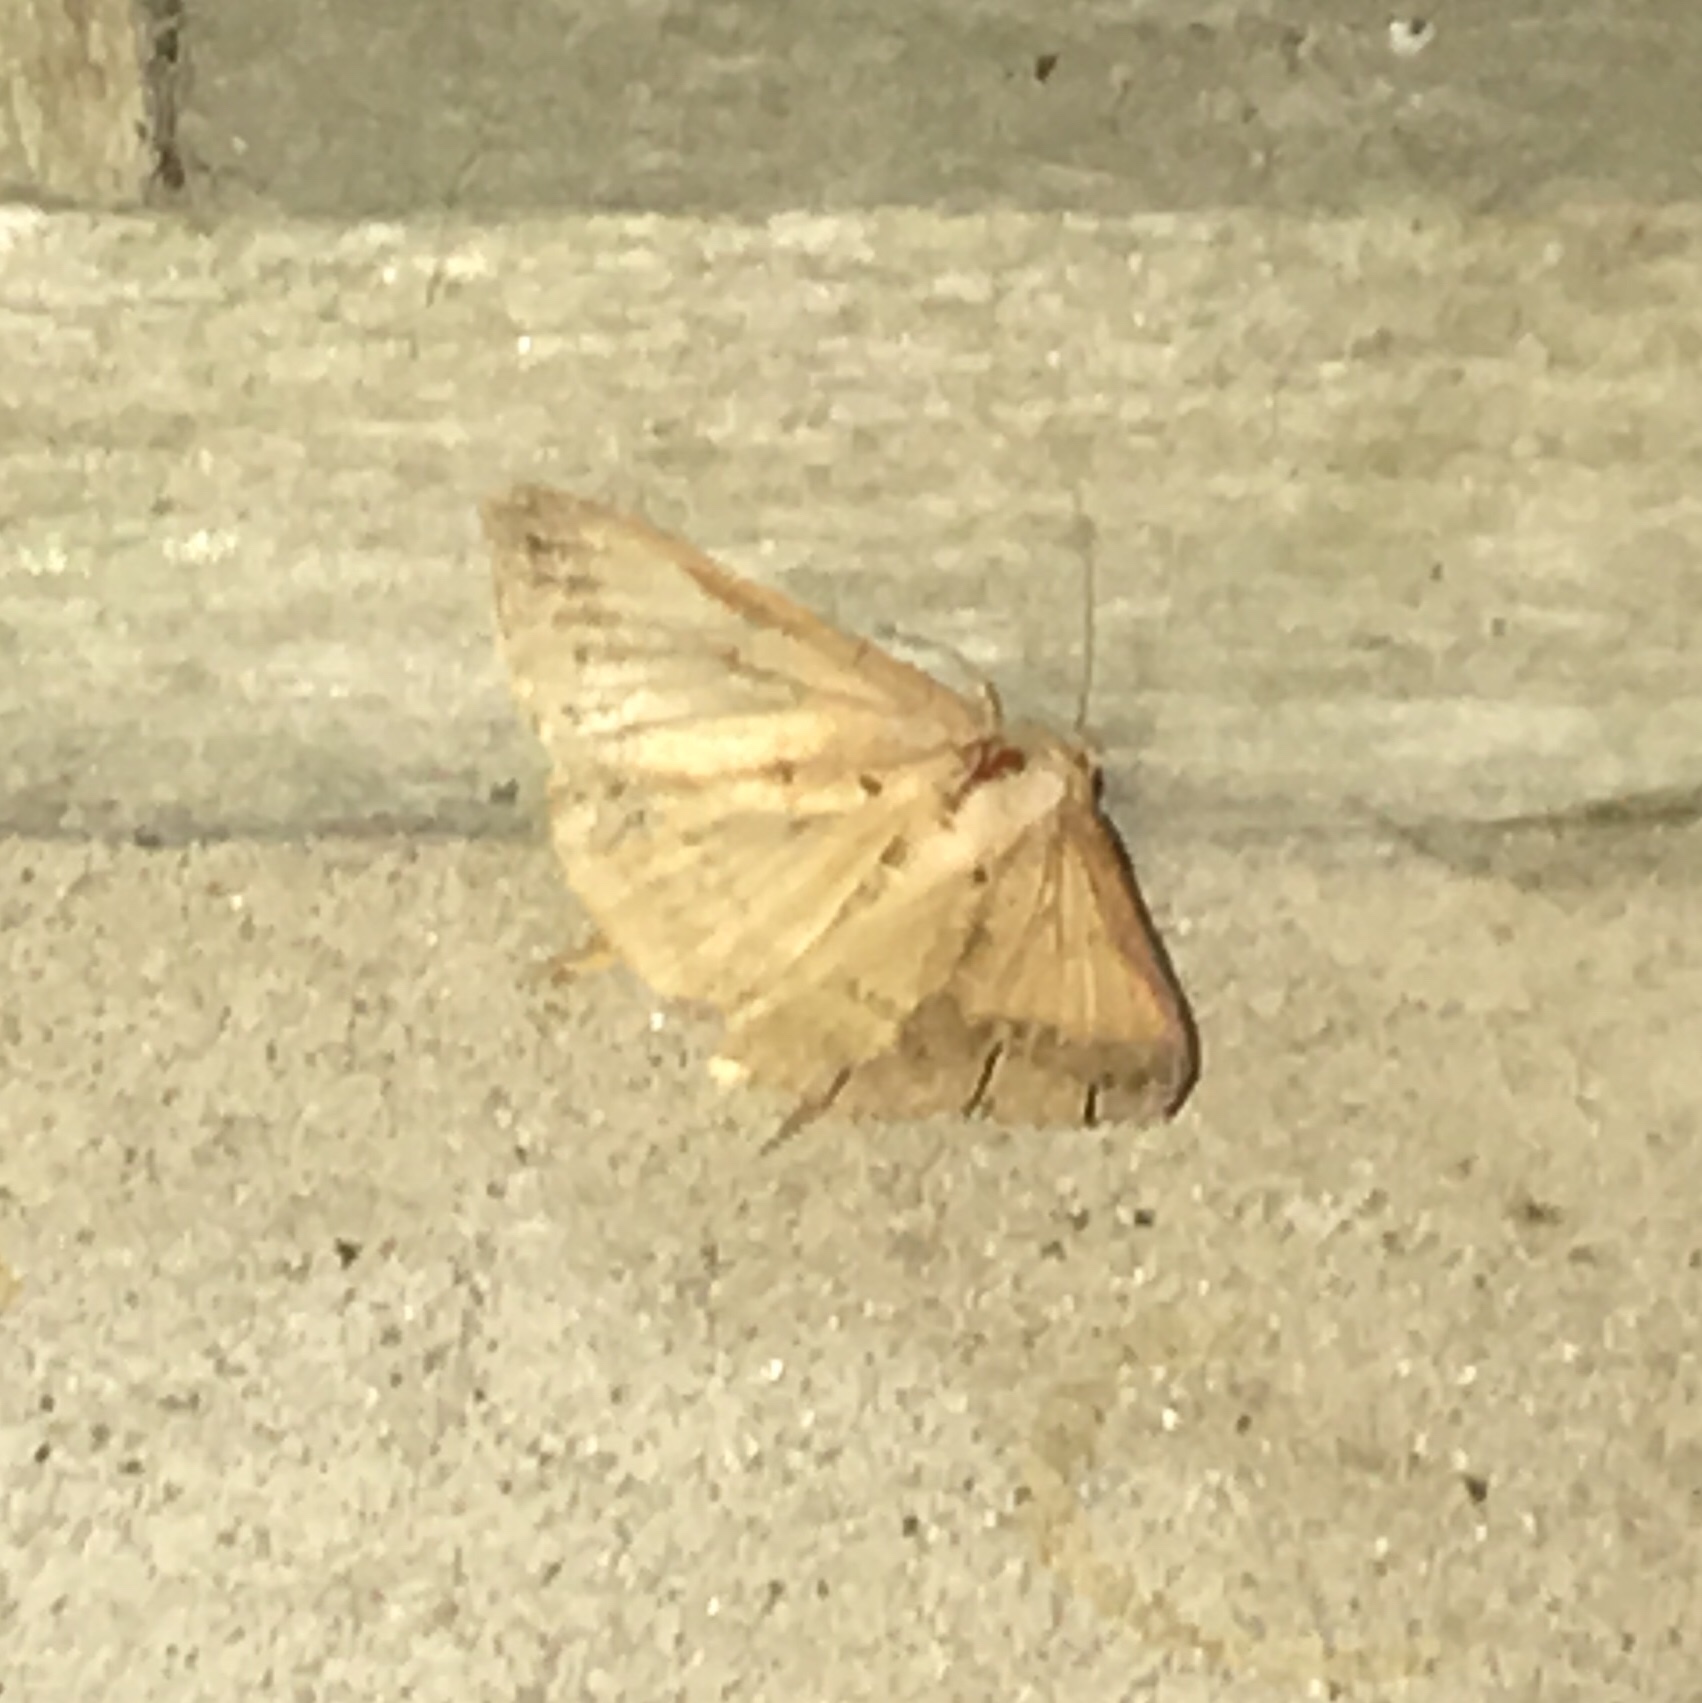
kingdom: Animalia
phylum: Arthropoda
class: Insecta
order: Lepidoptera
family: Erebidae
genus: Mocis
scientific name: Mocis marcida
